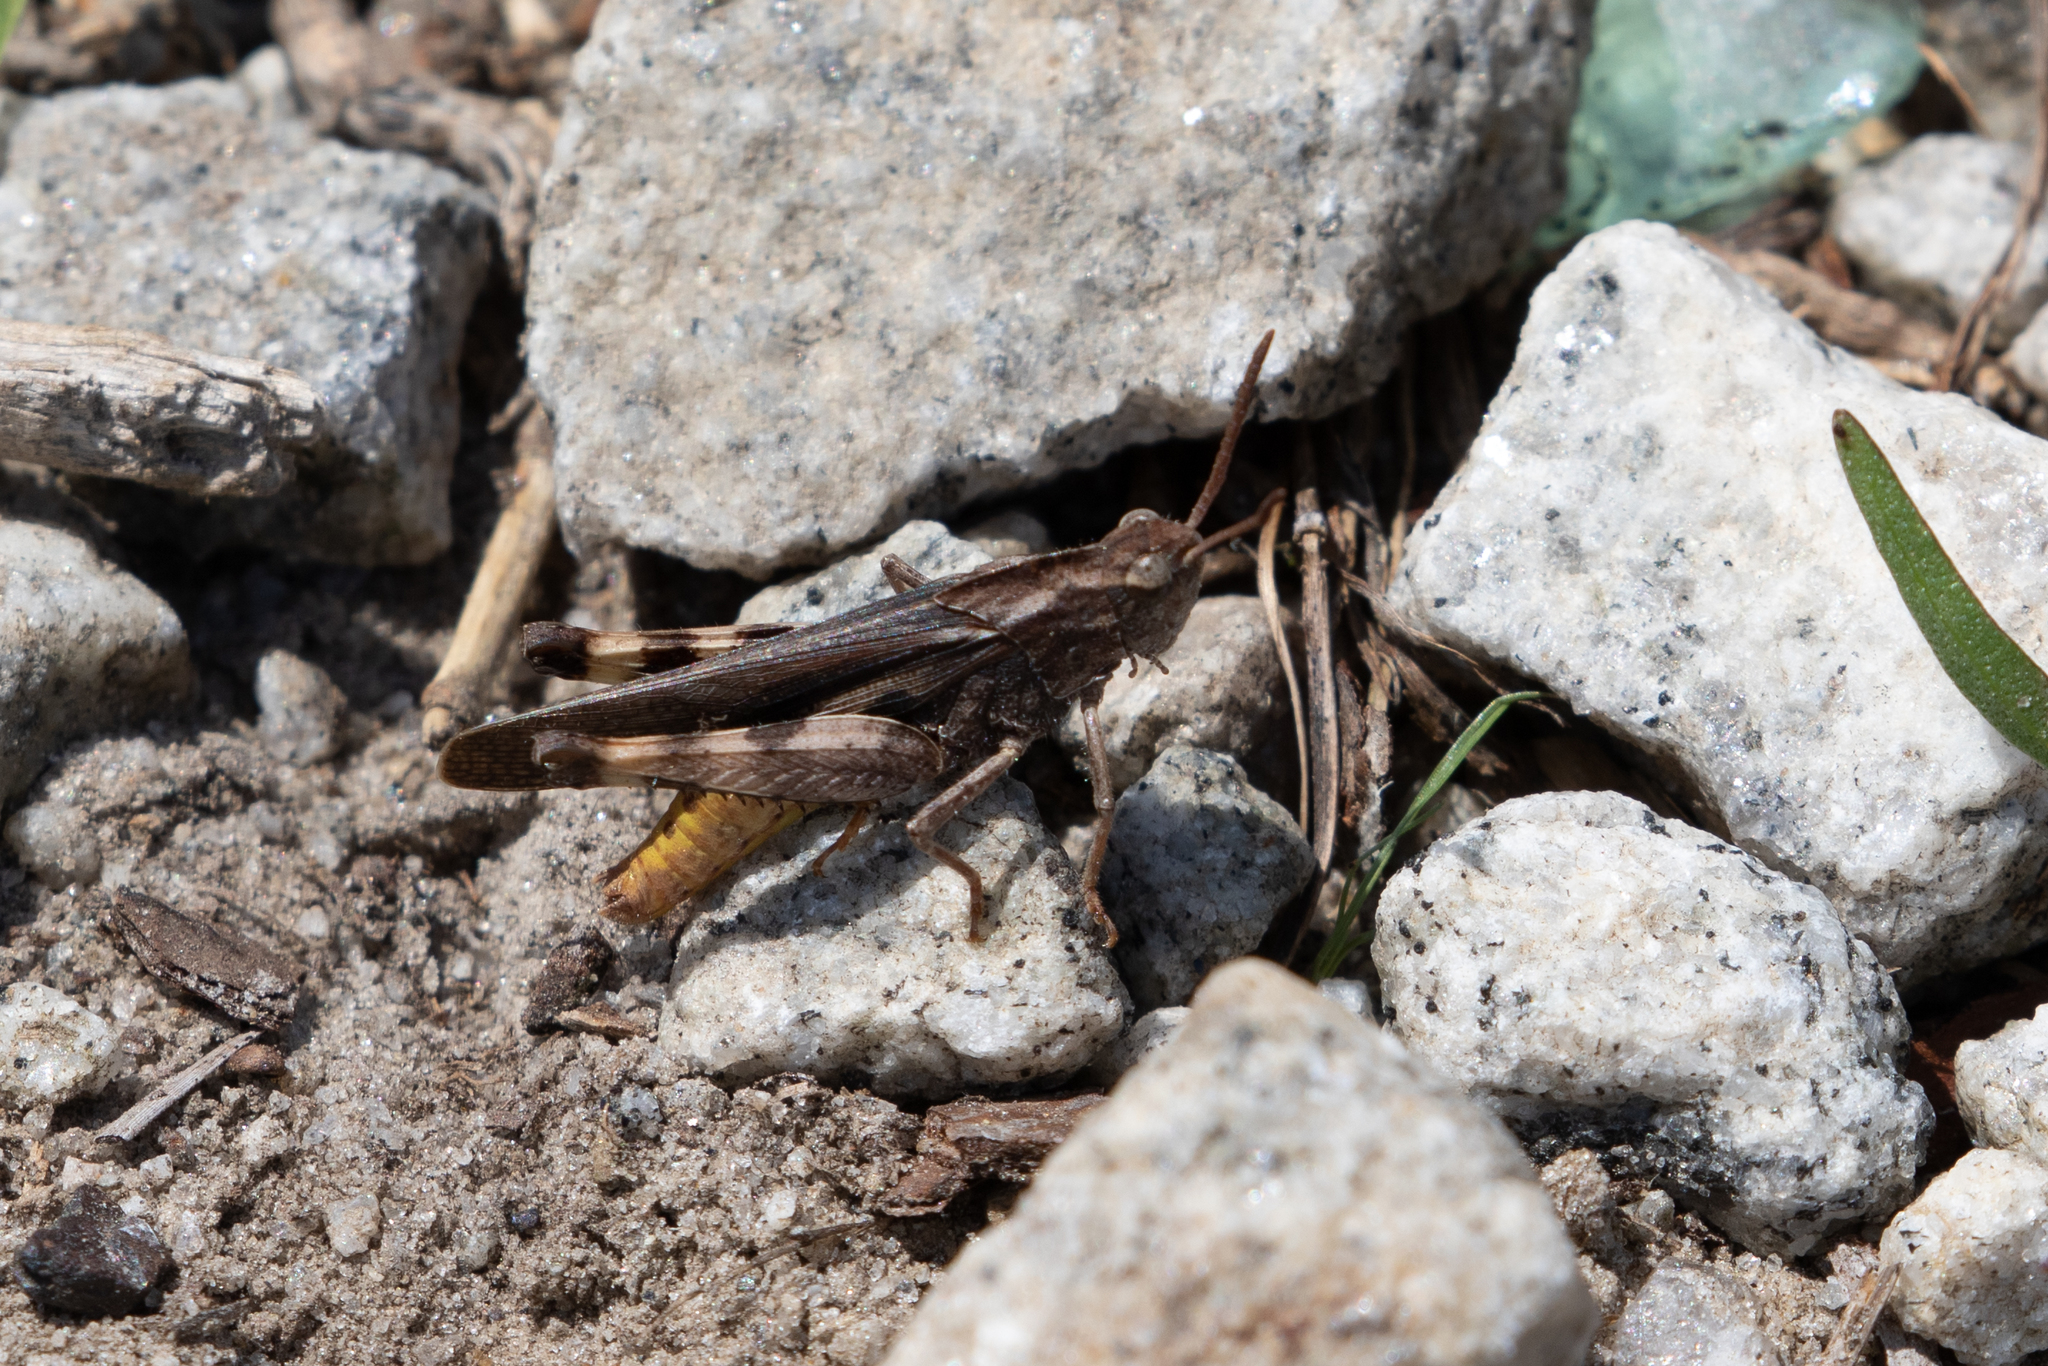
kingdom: Animalia
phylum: Arthropoda
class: Insecta
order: Orthoptera
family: Acrididae
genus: Chortophaga
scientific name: Chortophaga viridifasciata
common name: Green-striped grasshopper
